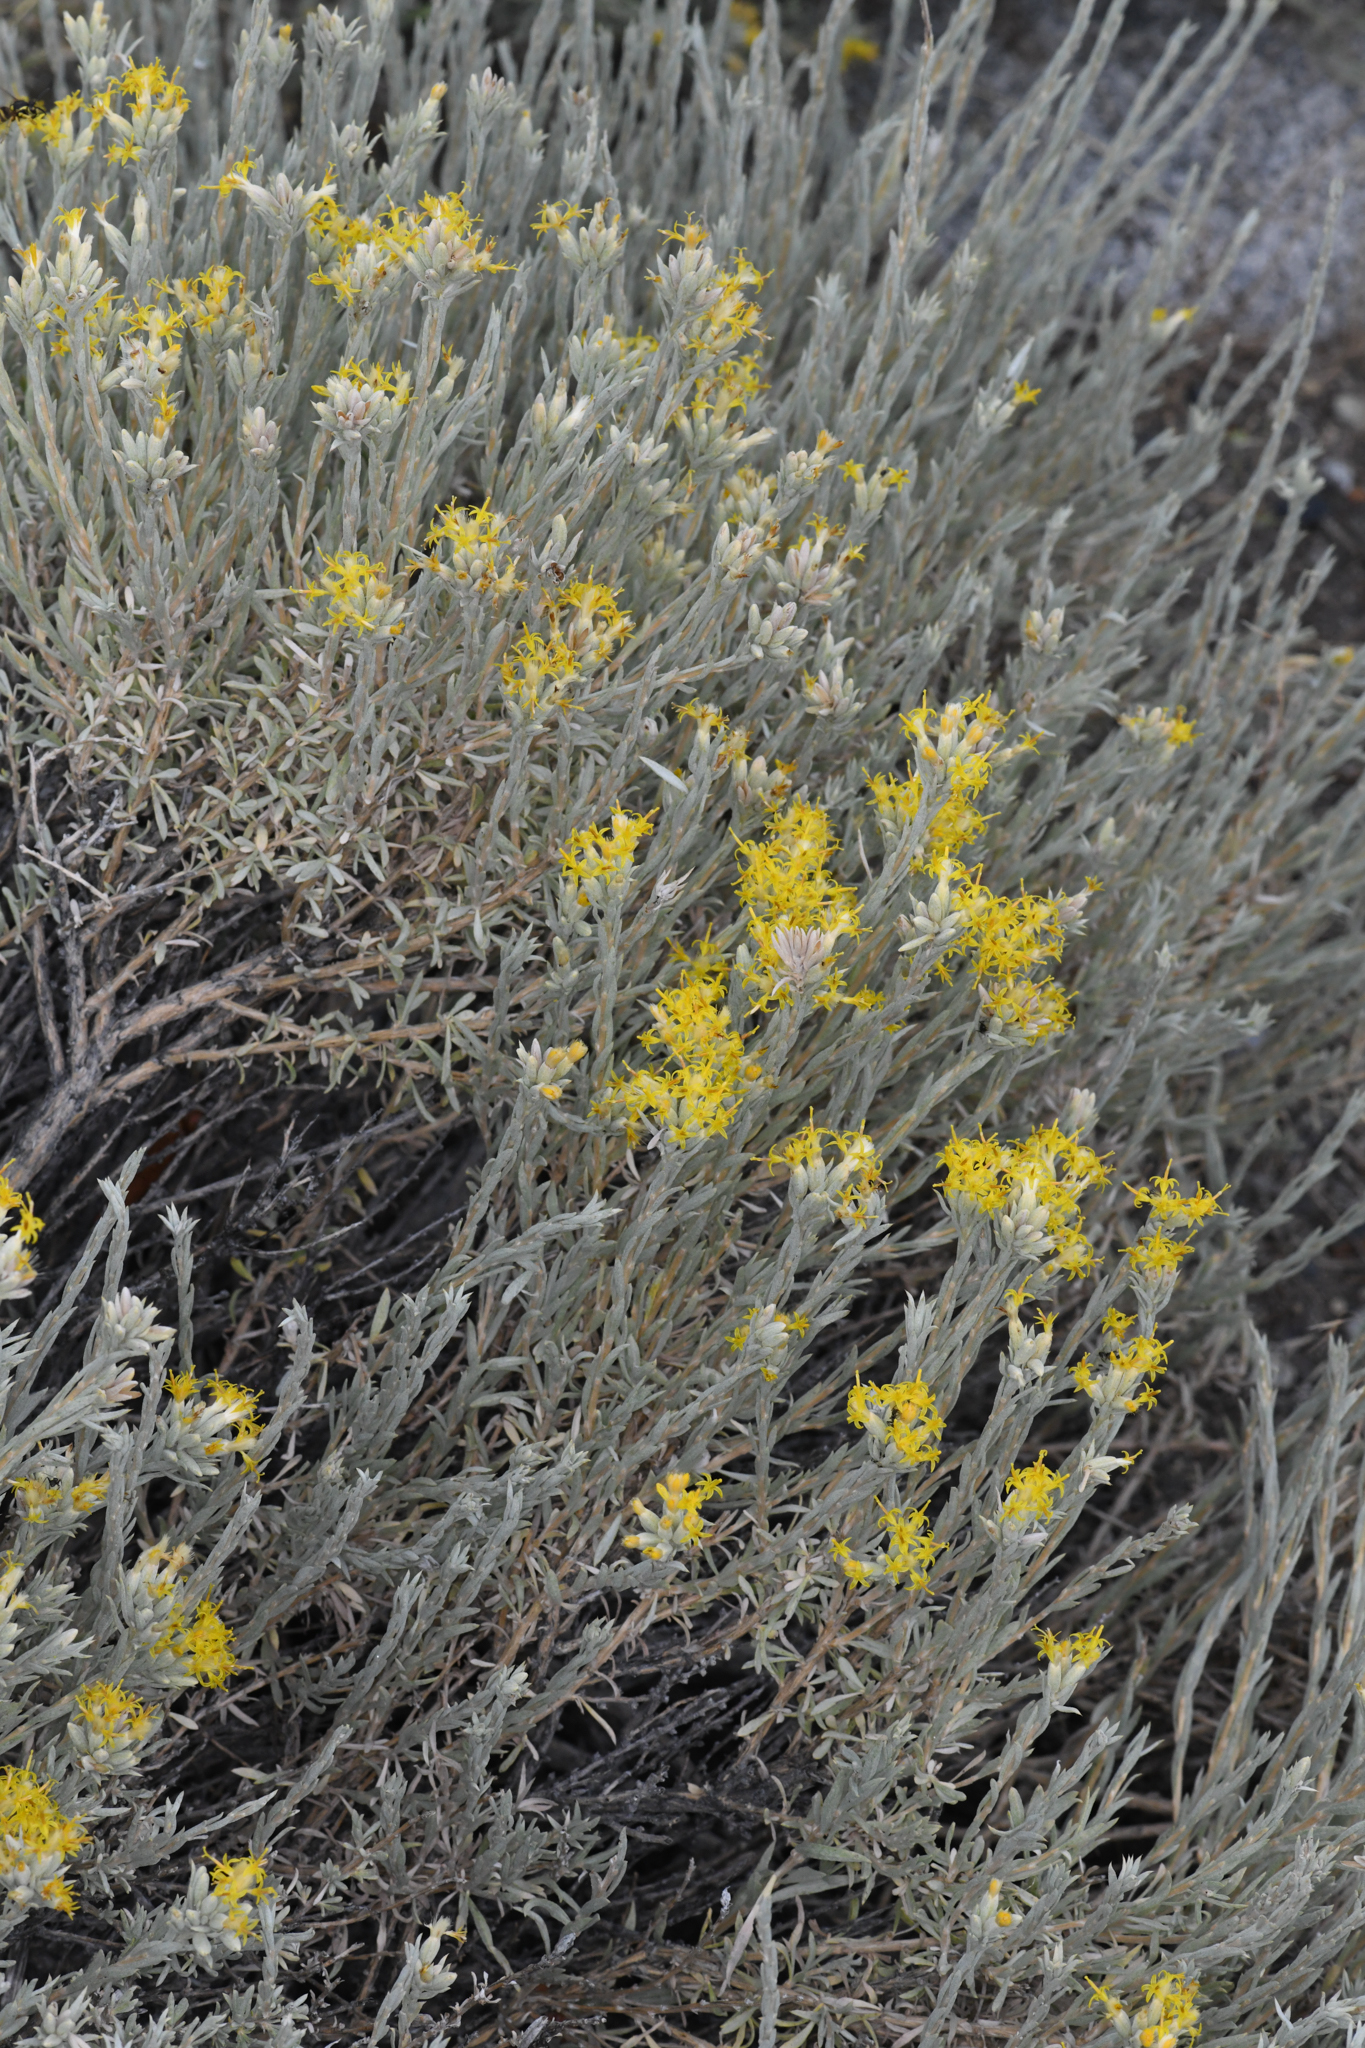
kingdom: Plantae
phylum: Tracheophyta
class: Magnoliopsida
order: Asterales
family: Asteraceae
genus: Tetradymia
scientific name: Tetradymia canescens
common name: Spineless horsebrush
